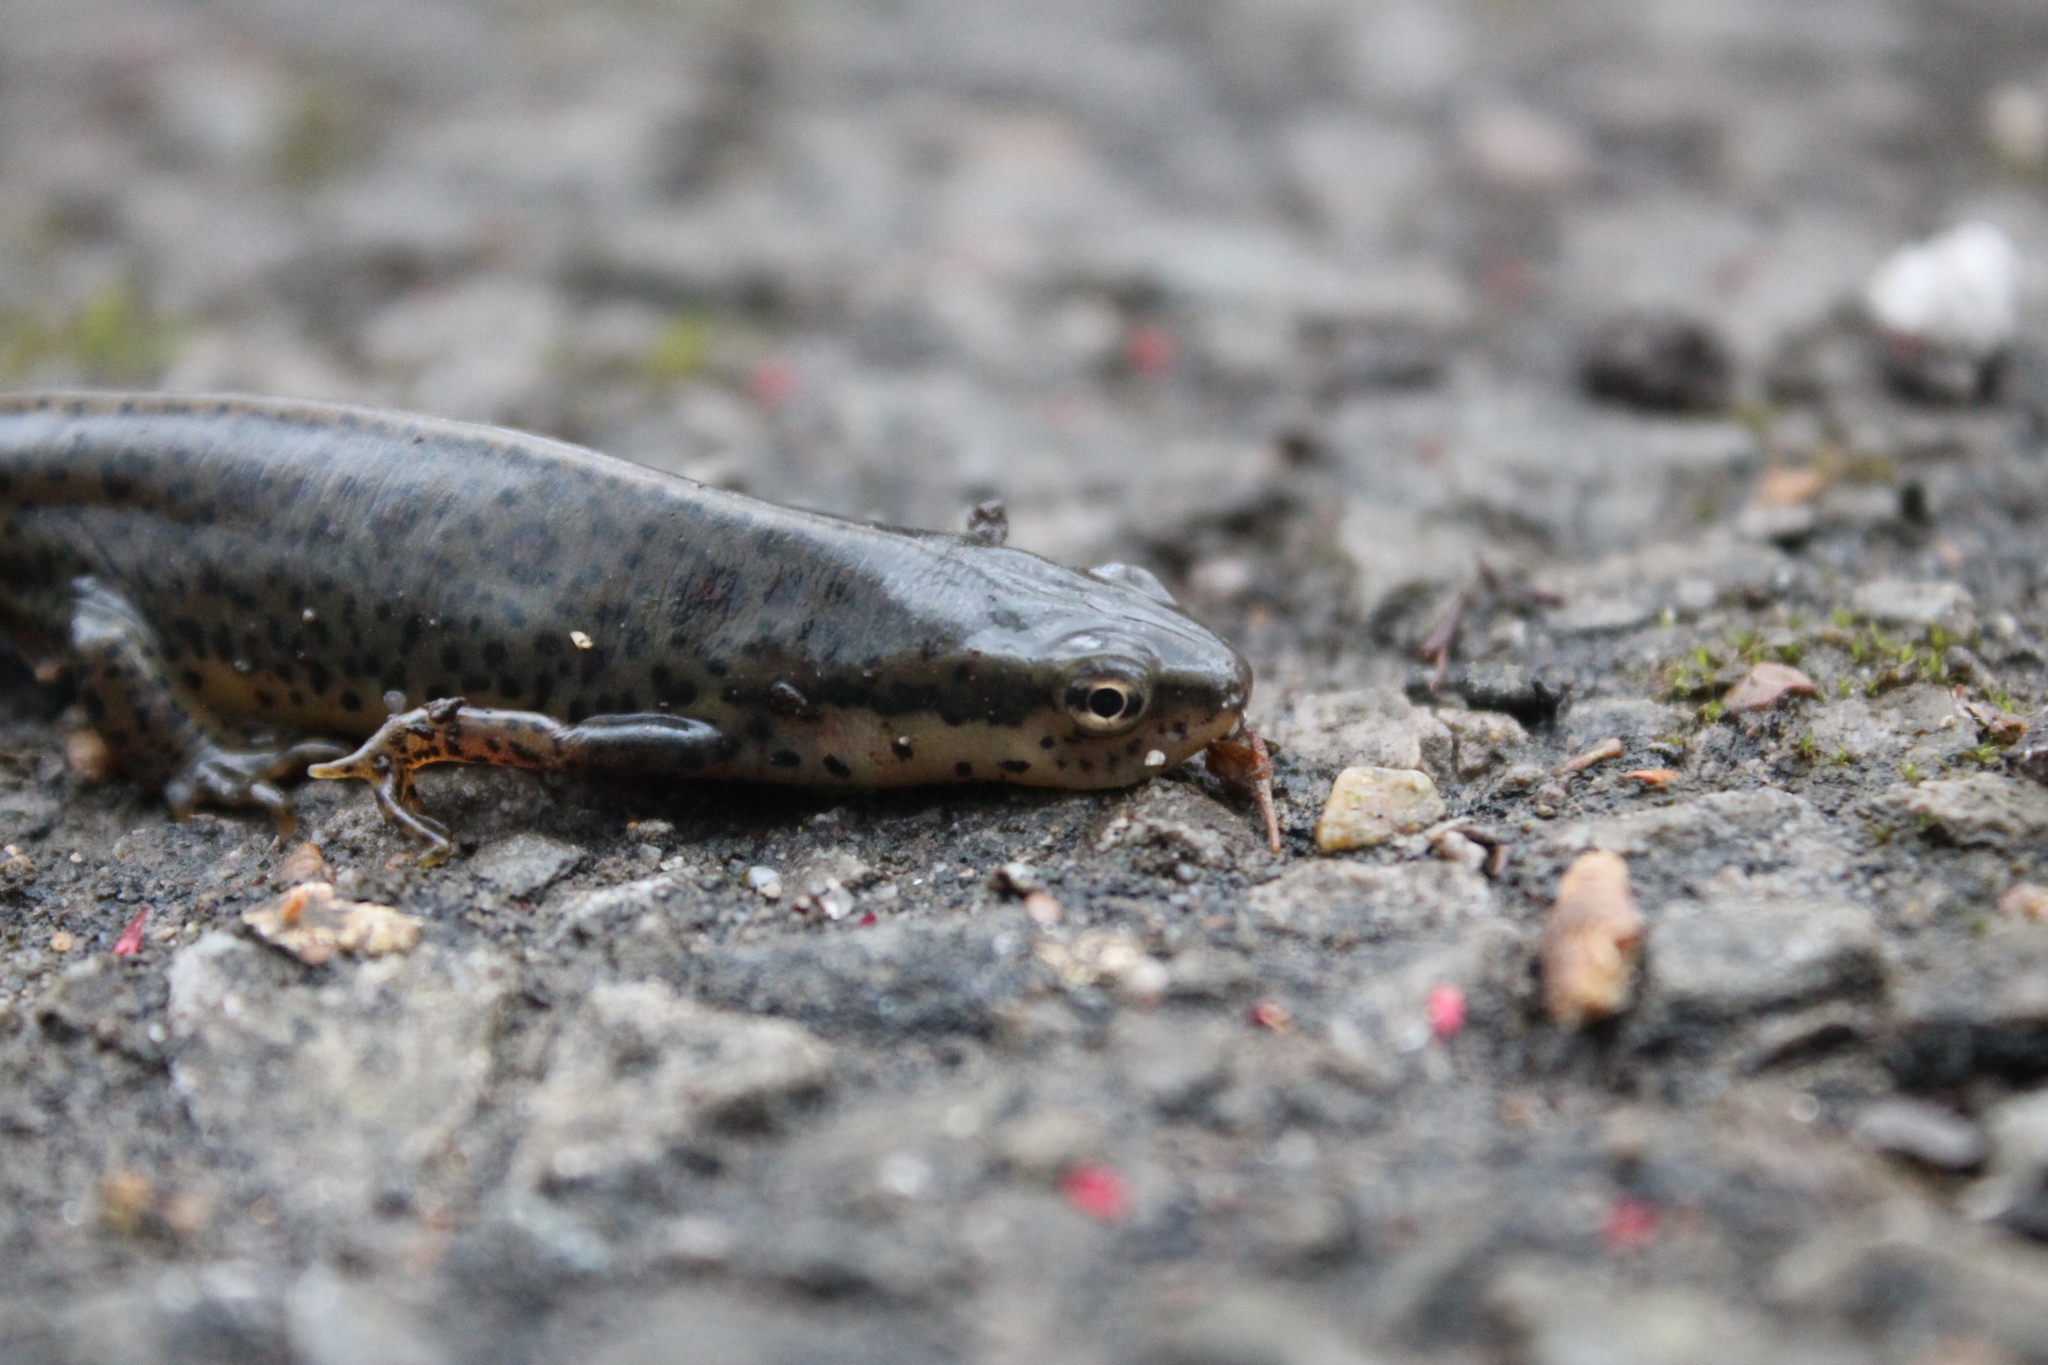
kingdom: Animalia
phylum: Chordata
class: Amphibia
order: Caudata
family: Salamandridae
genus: Notophthalmus
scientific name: Notophthalmus viridescens
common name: Eastern newt
